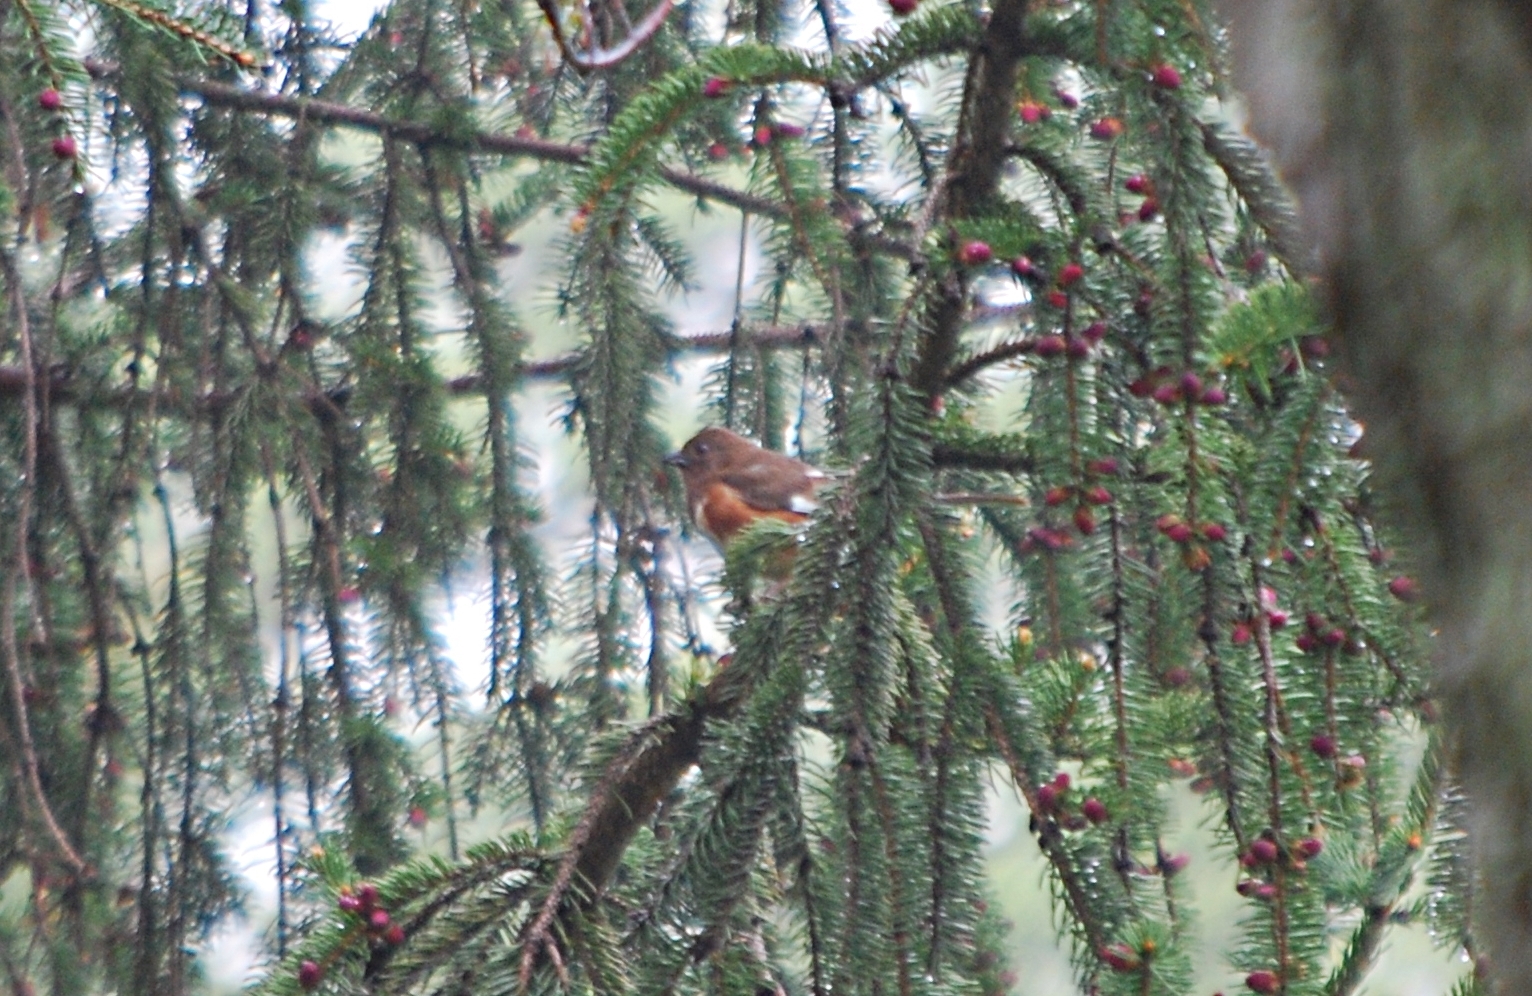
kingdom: Animalia
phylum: Chordata
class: Aves
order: Passeriformes
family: Passerellidae
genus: Pipilo
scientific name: Pipilo erythrophthalmus
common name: Eastern towhee
